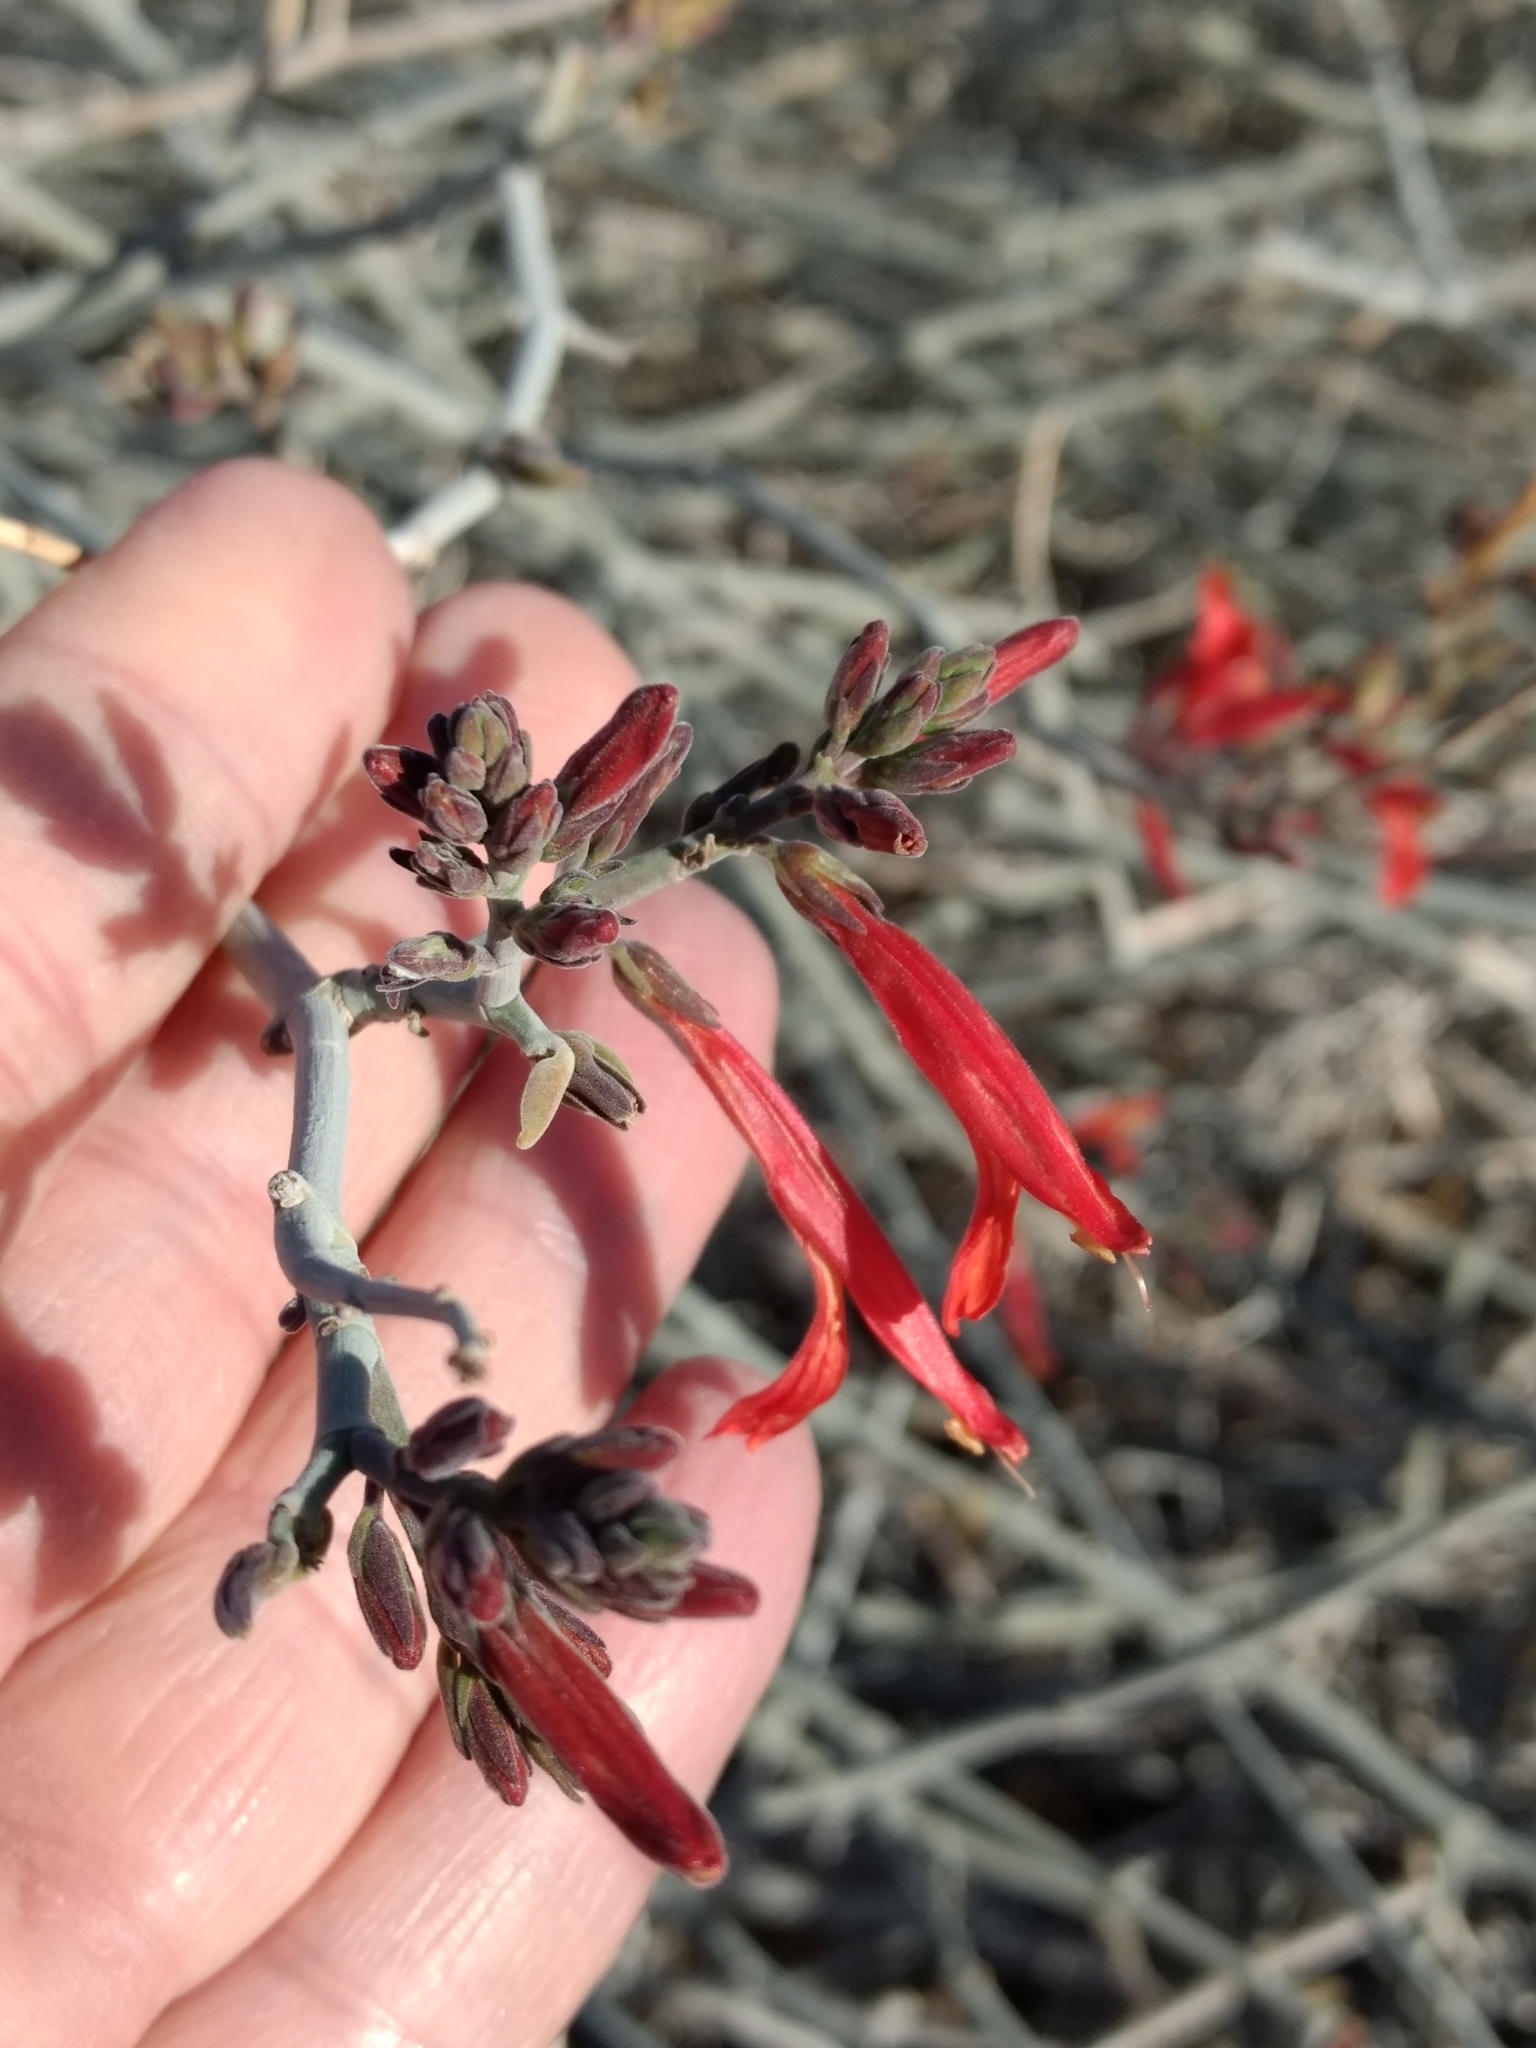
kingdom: Plantae
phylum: Tracheophyta
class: Magnoliopsida
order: Lamiales
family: Acanthaceae
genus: Justicia
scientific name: Justicia californica
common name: Chuparosa-honeysuckle
